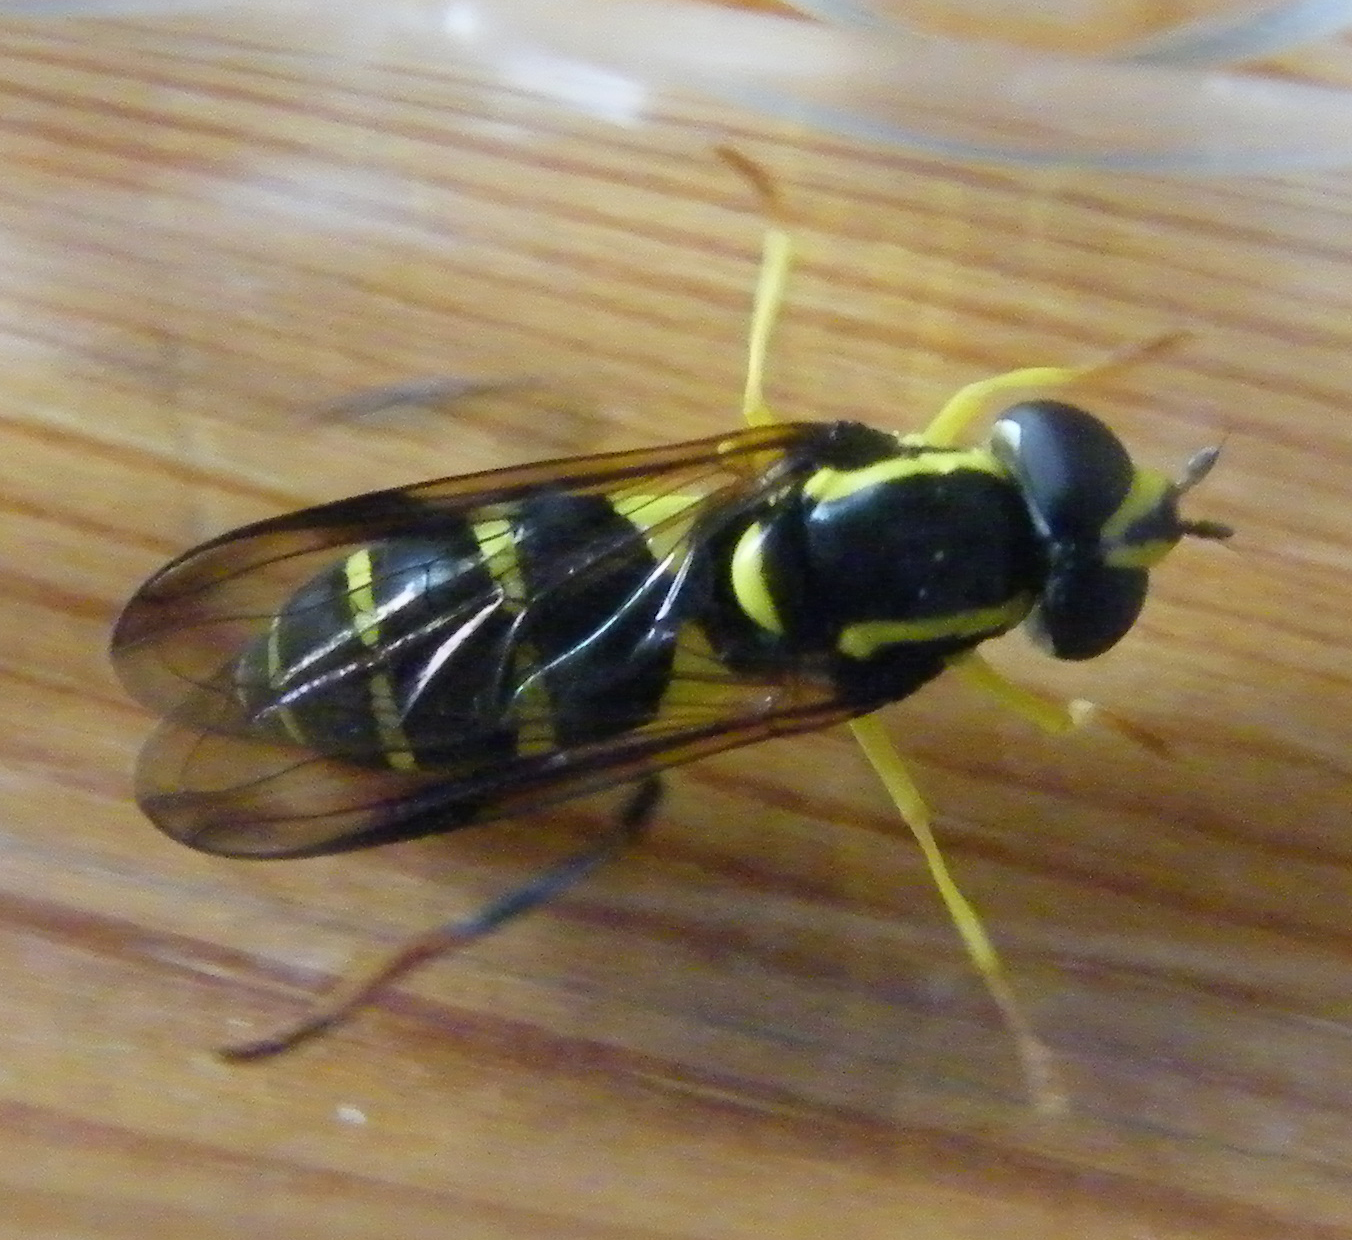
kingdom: Animalia
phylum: Arthropoda
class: Insecta
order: Diptera
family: Syrphidae
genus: Philhelius
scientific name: Philhelius dives
